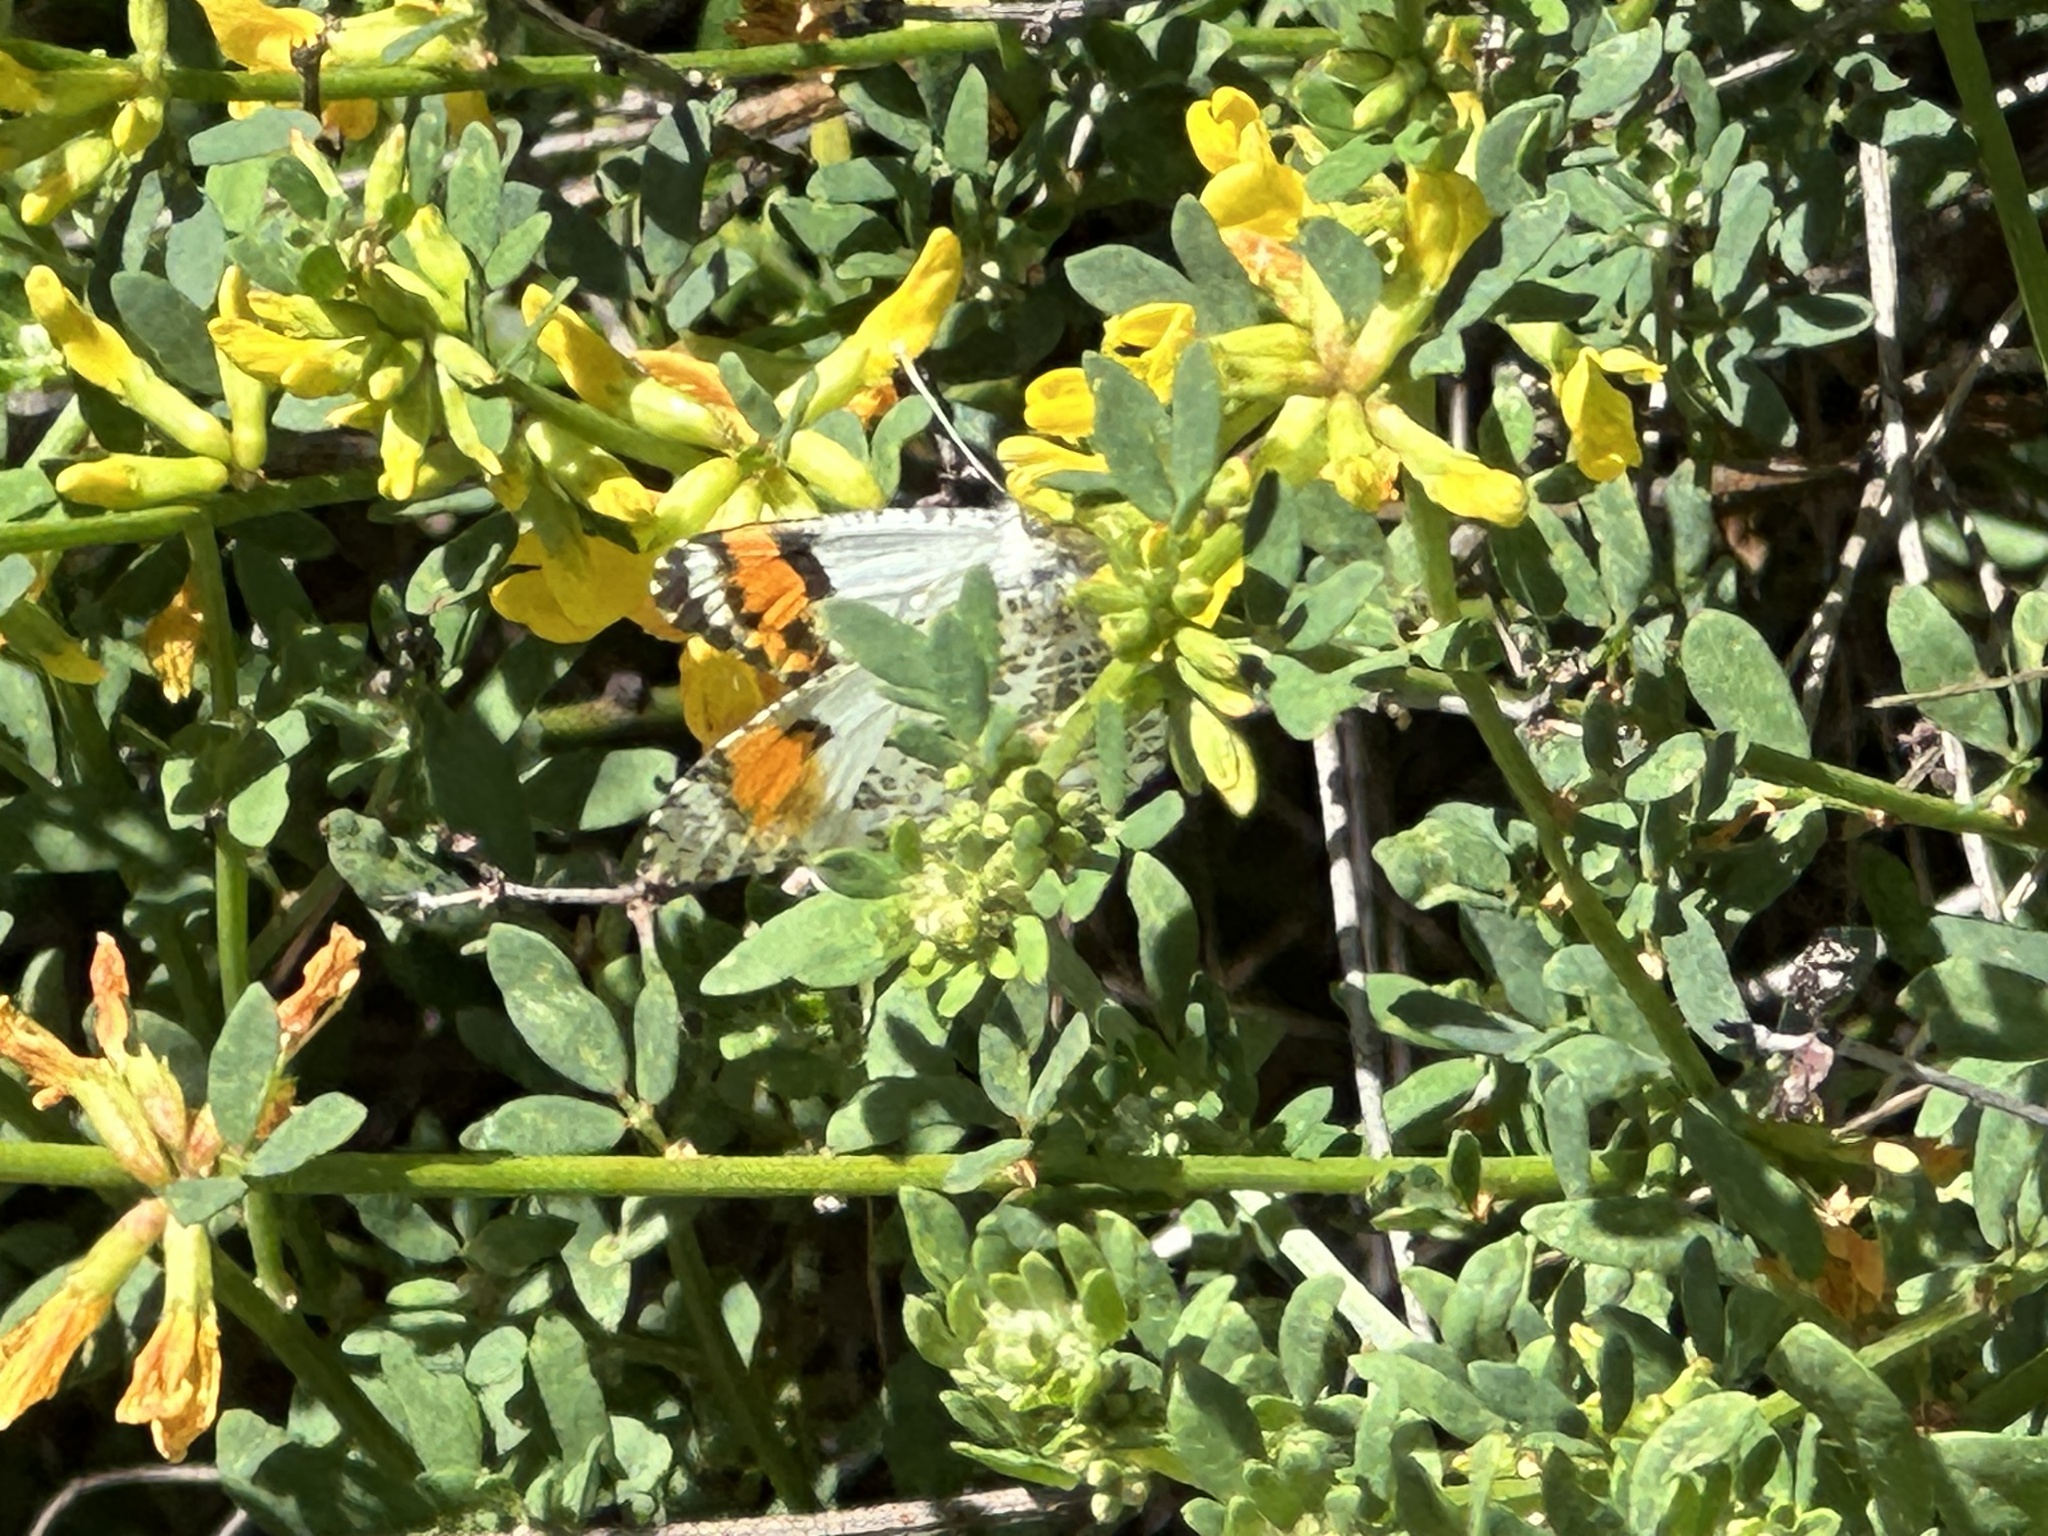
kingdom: Animalia
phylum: Arthropoda
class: Insecta
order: Lepidoptera
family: Pieridae
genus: Anthocharis
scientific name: Anthocharis sara
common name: Sara's orangetip
